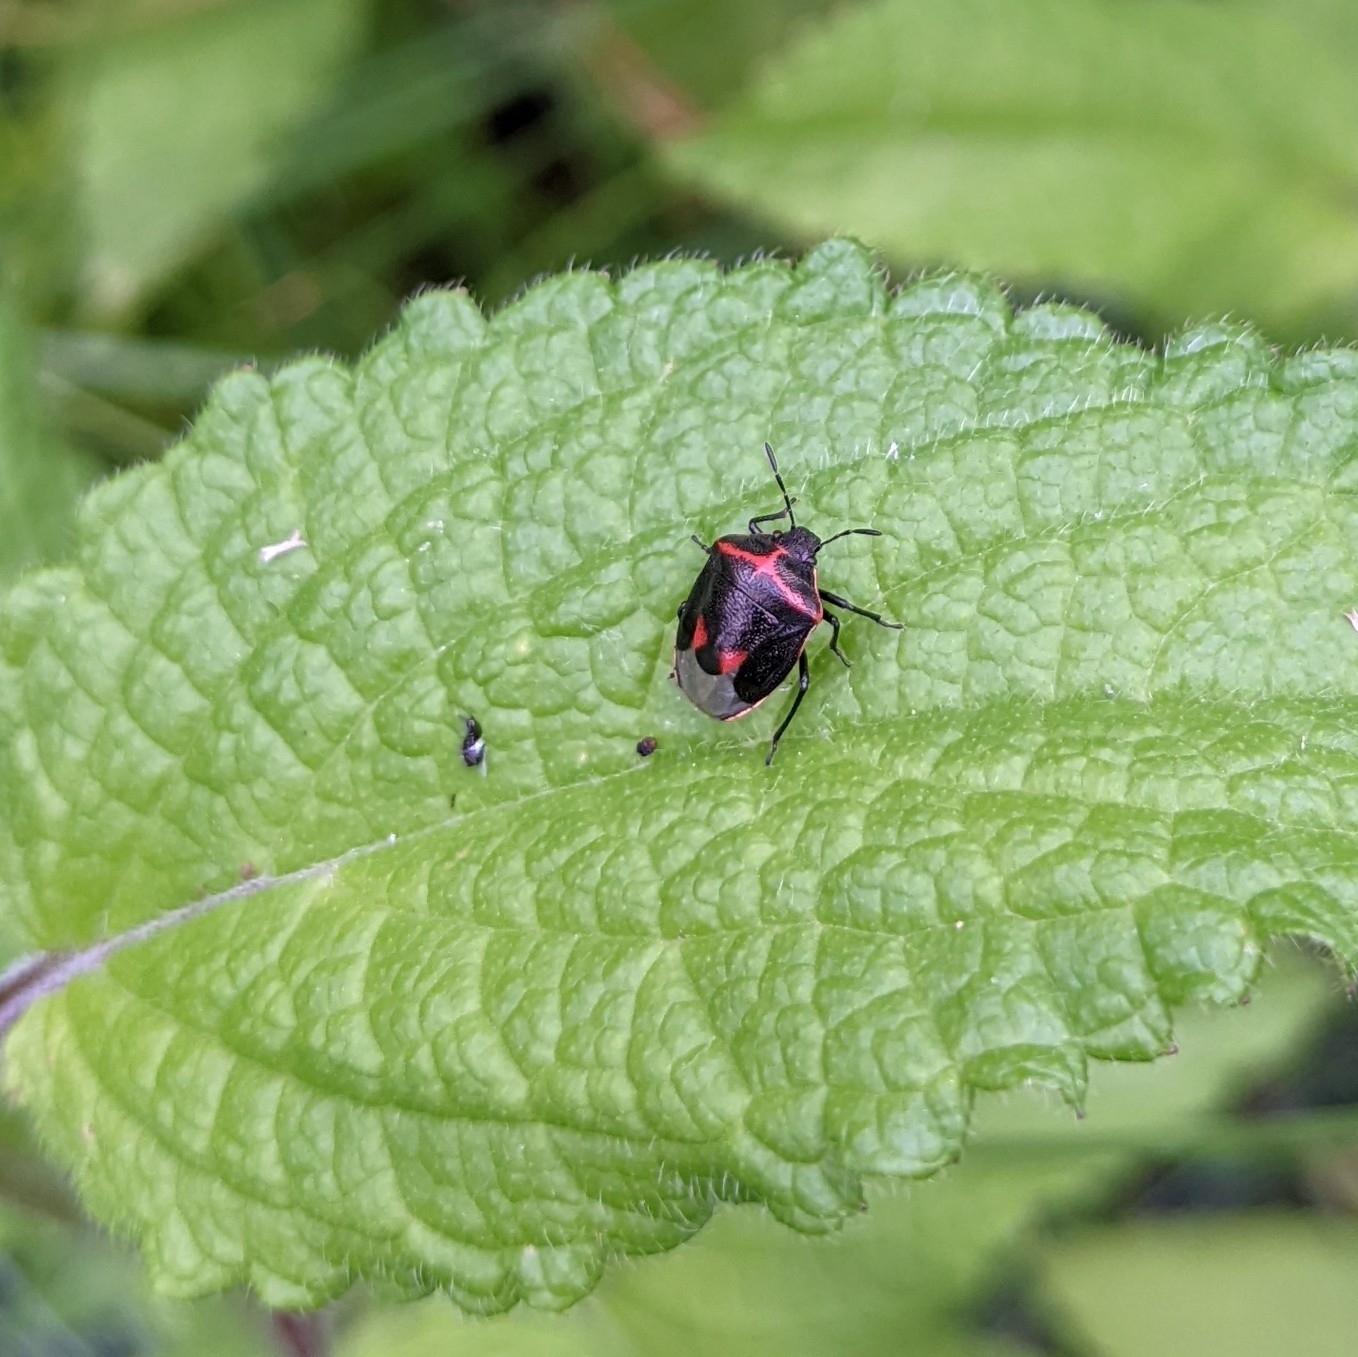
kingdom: Animalia
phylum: Arthropoda
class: Insecta
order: Hemiptera
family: Pentatomidae
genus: Cosmopepla
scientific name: Cosmopepla lintneriana
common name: Twice-stabbed stink bug
